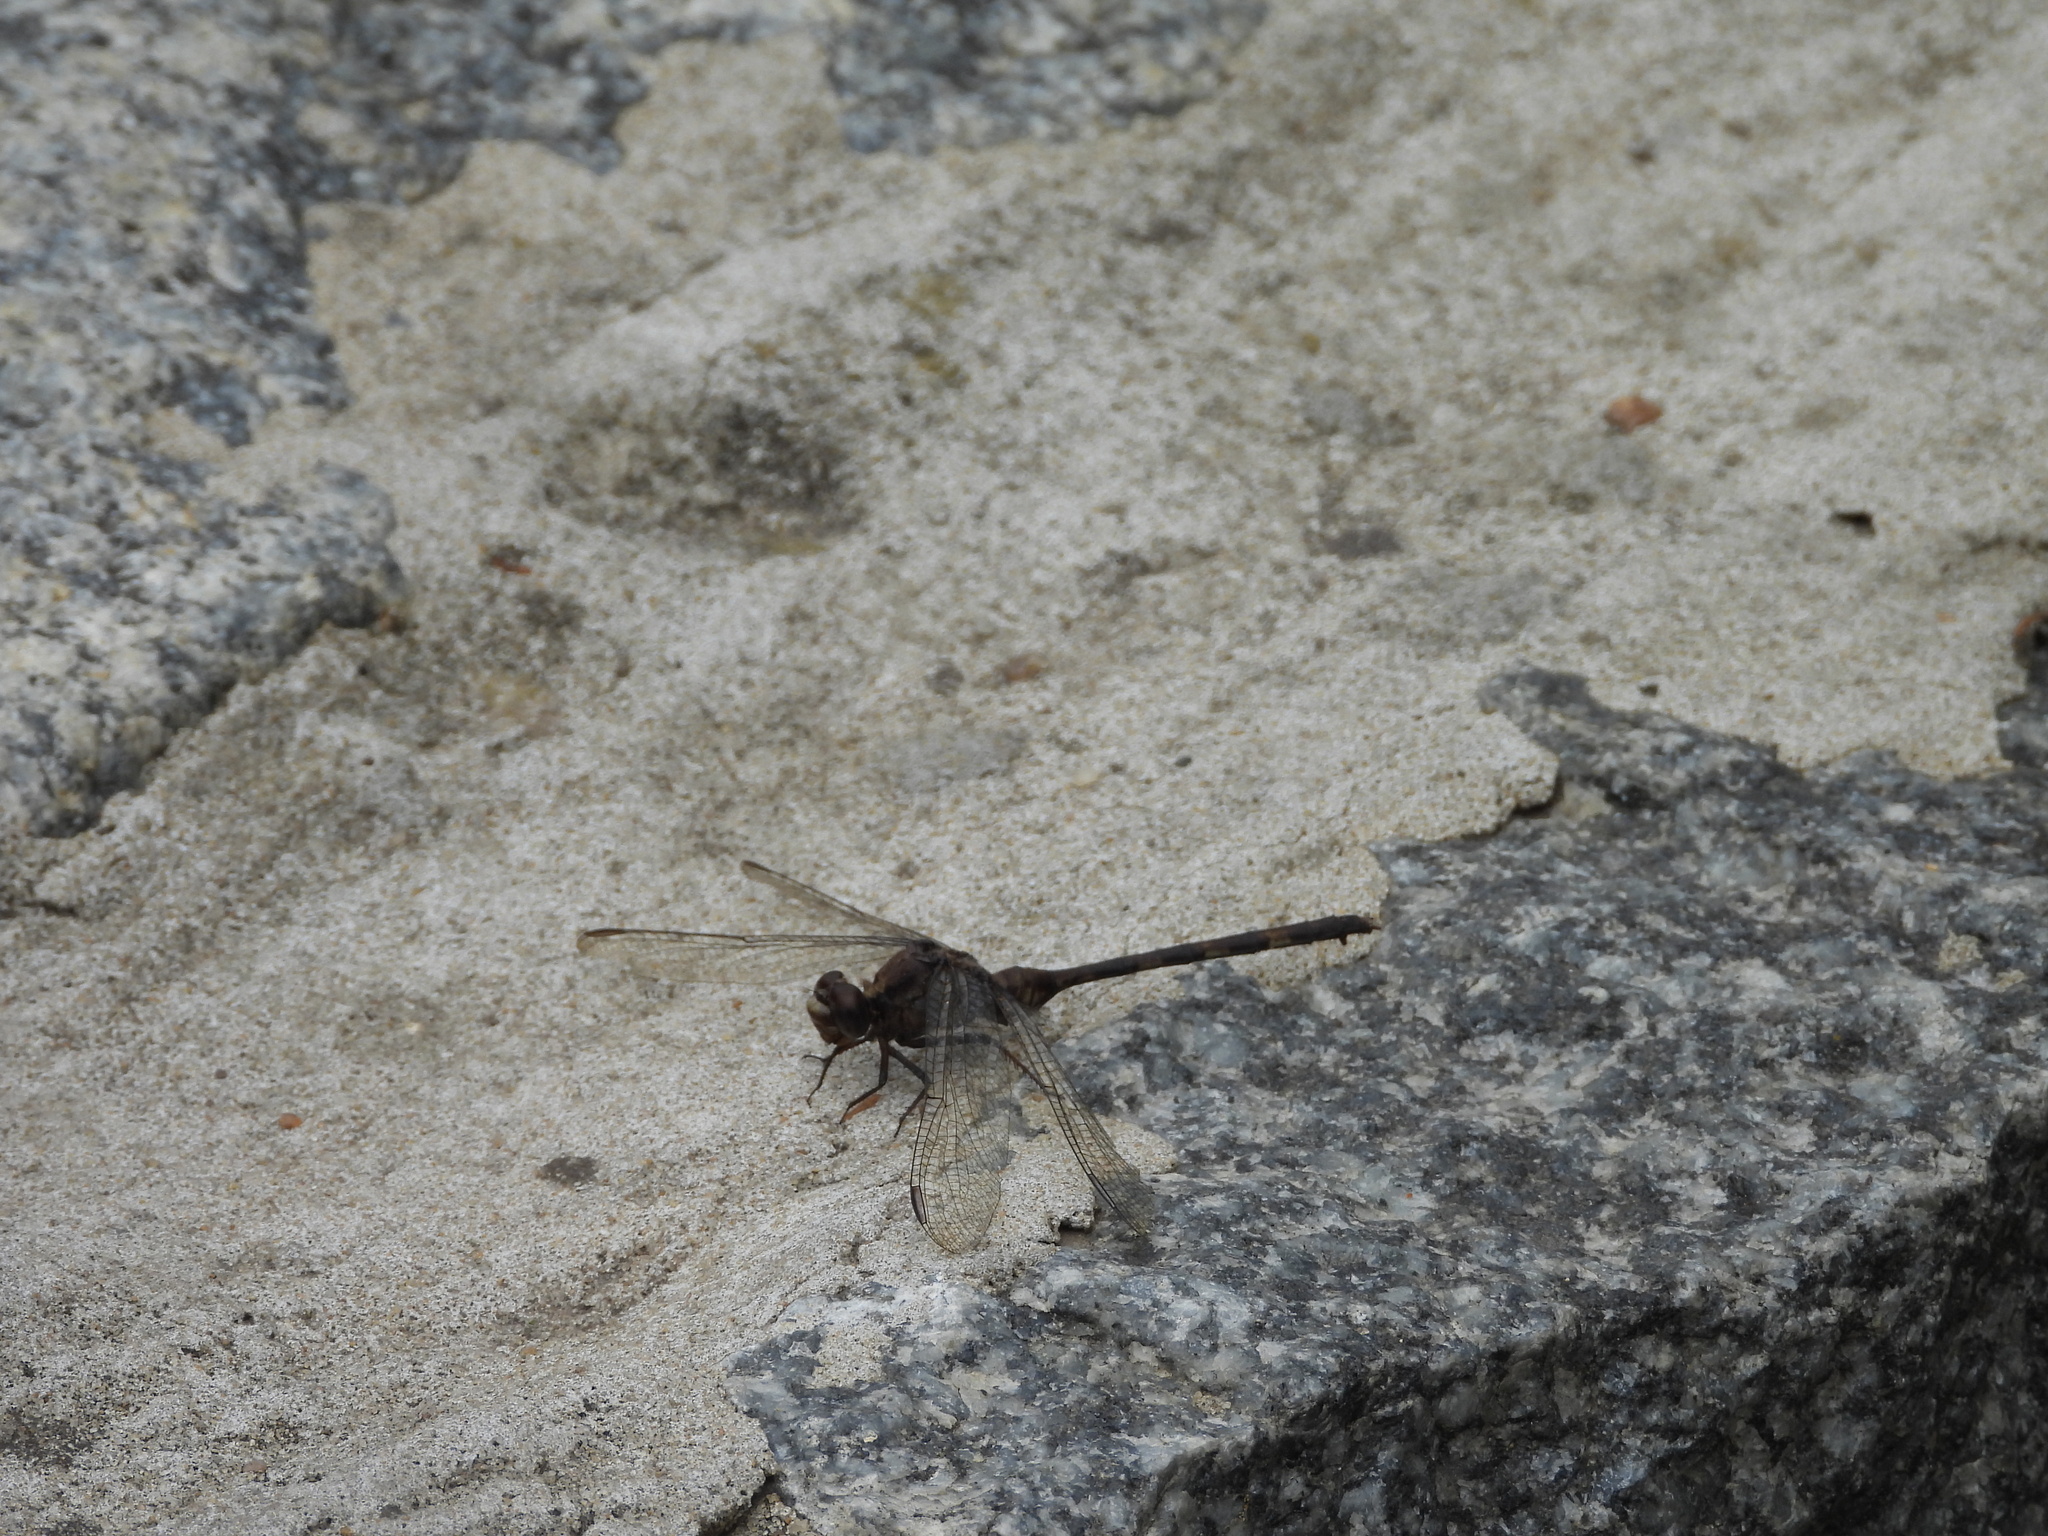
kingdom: Animalia
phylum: Arthropoda
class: Insecta
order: Odonata
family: Libellulidae
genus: Erythemis
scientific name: Erythemis plebeja
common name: Pin-tailed pondhawk
